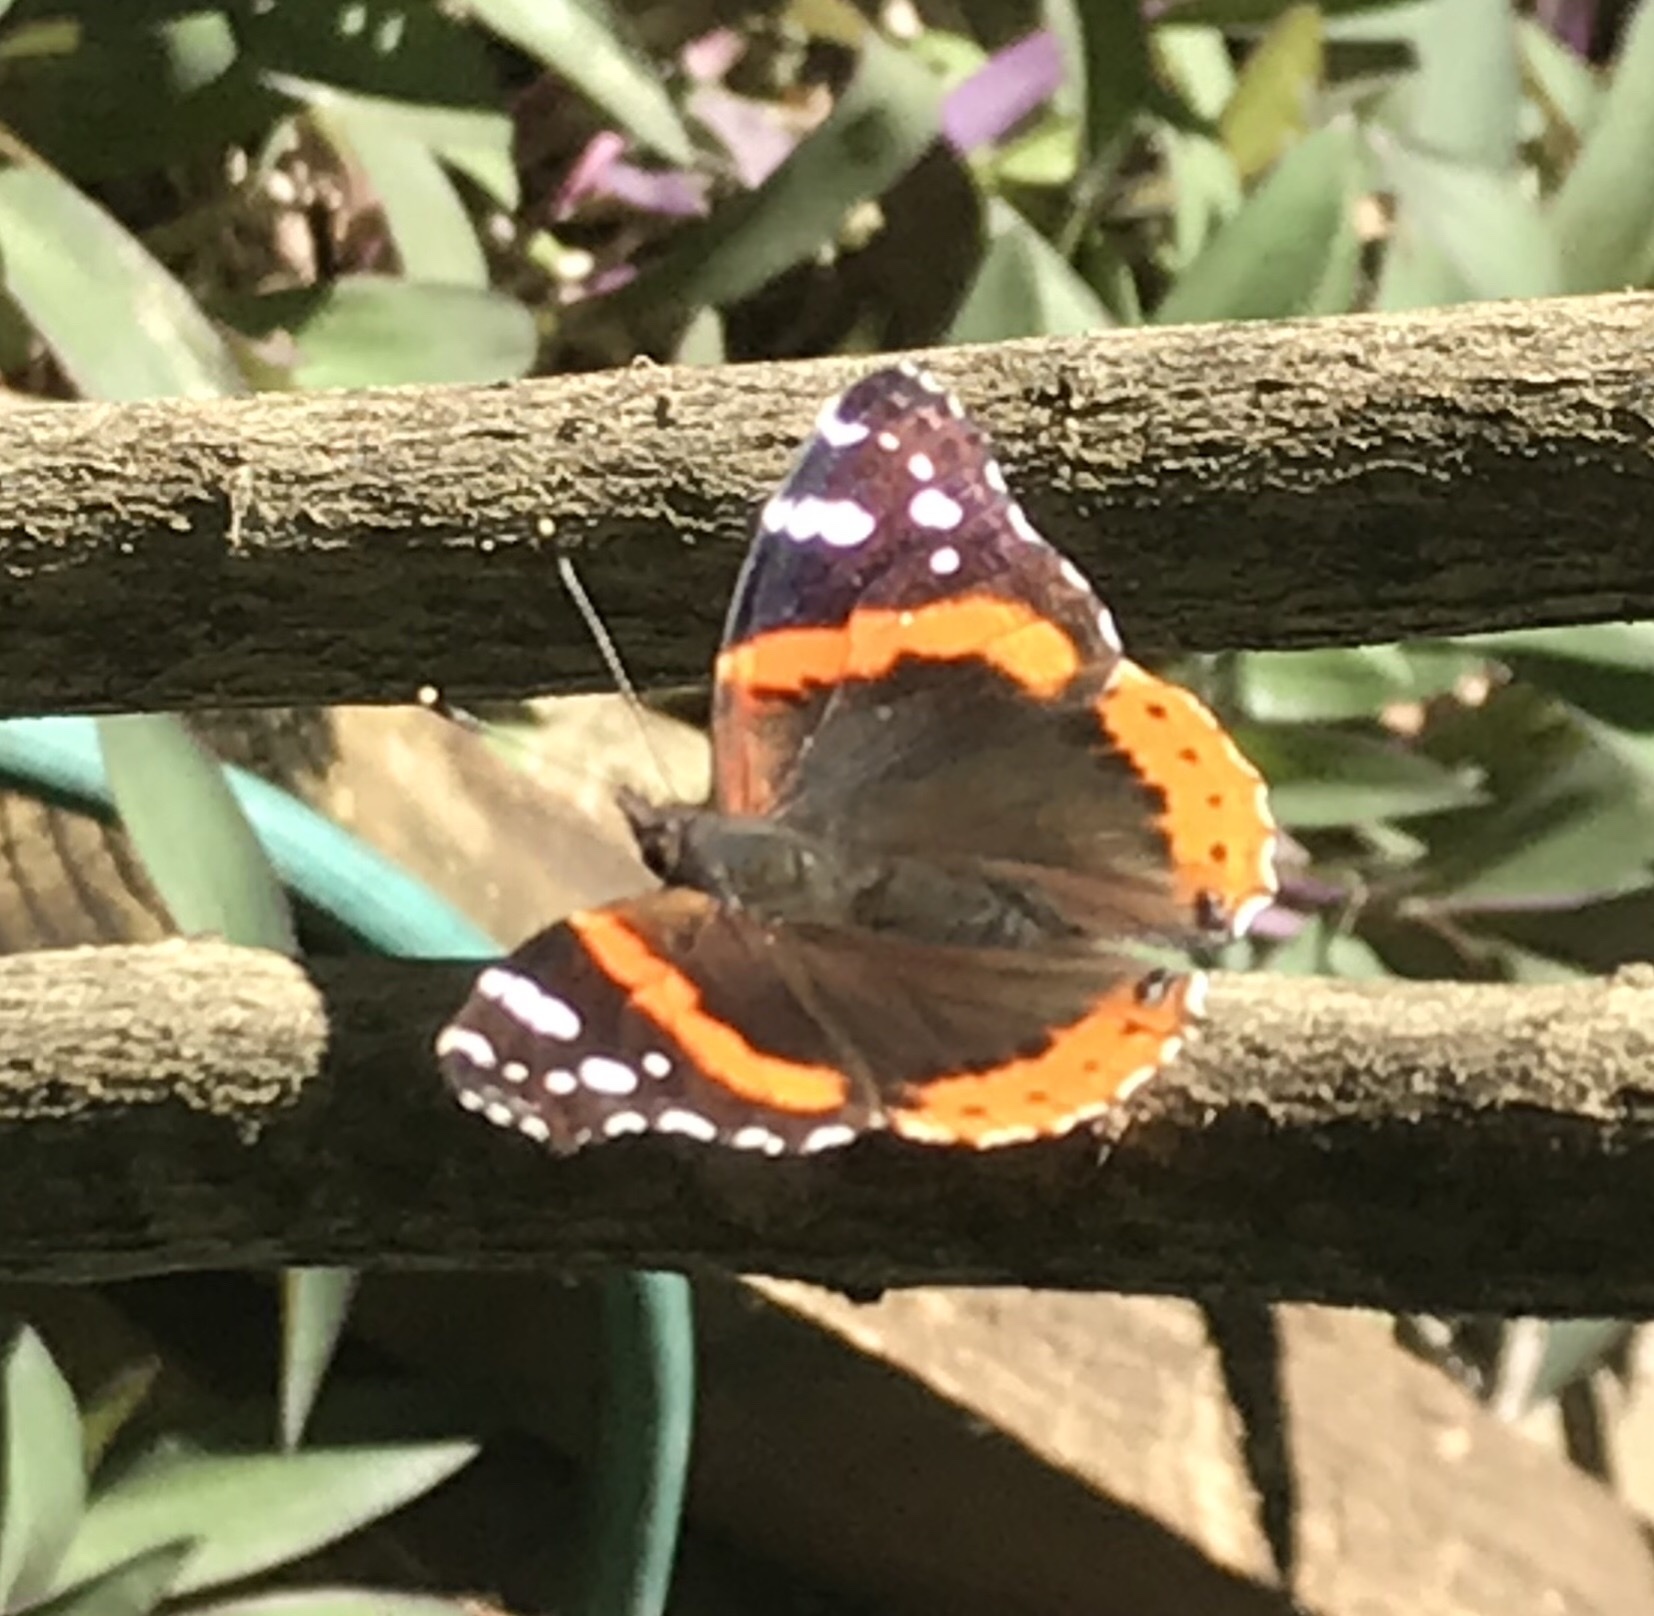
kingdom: Animalia
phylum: Arthropoda
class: Insecta
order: Lepidoptera
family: Nymphalidae
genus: Vanessa
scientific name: Vanessa atalanta
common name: Red admiral
